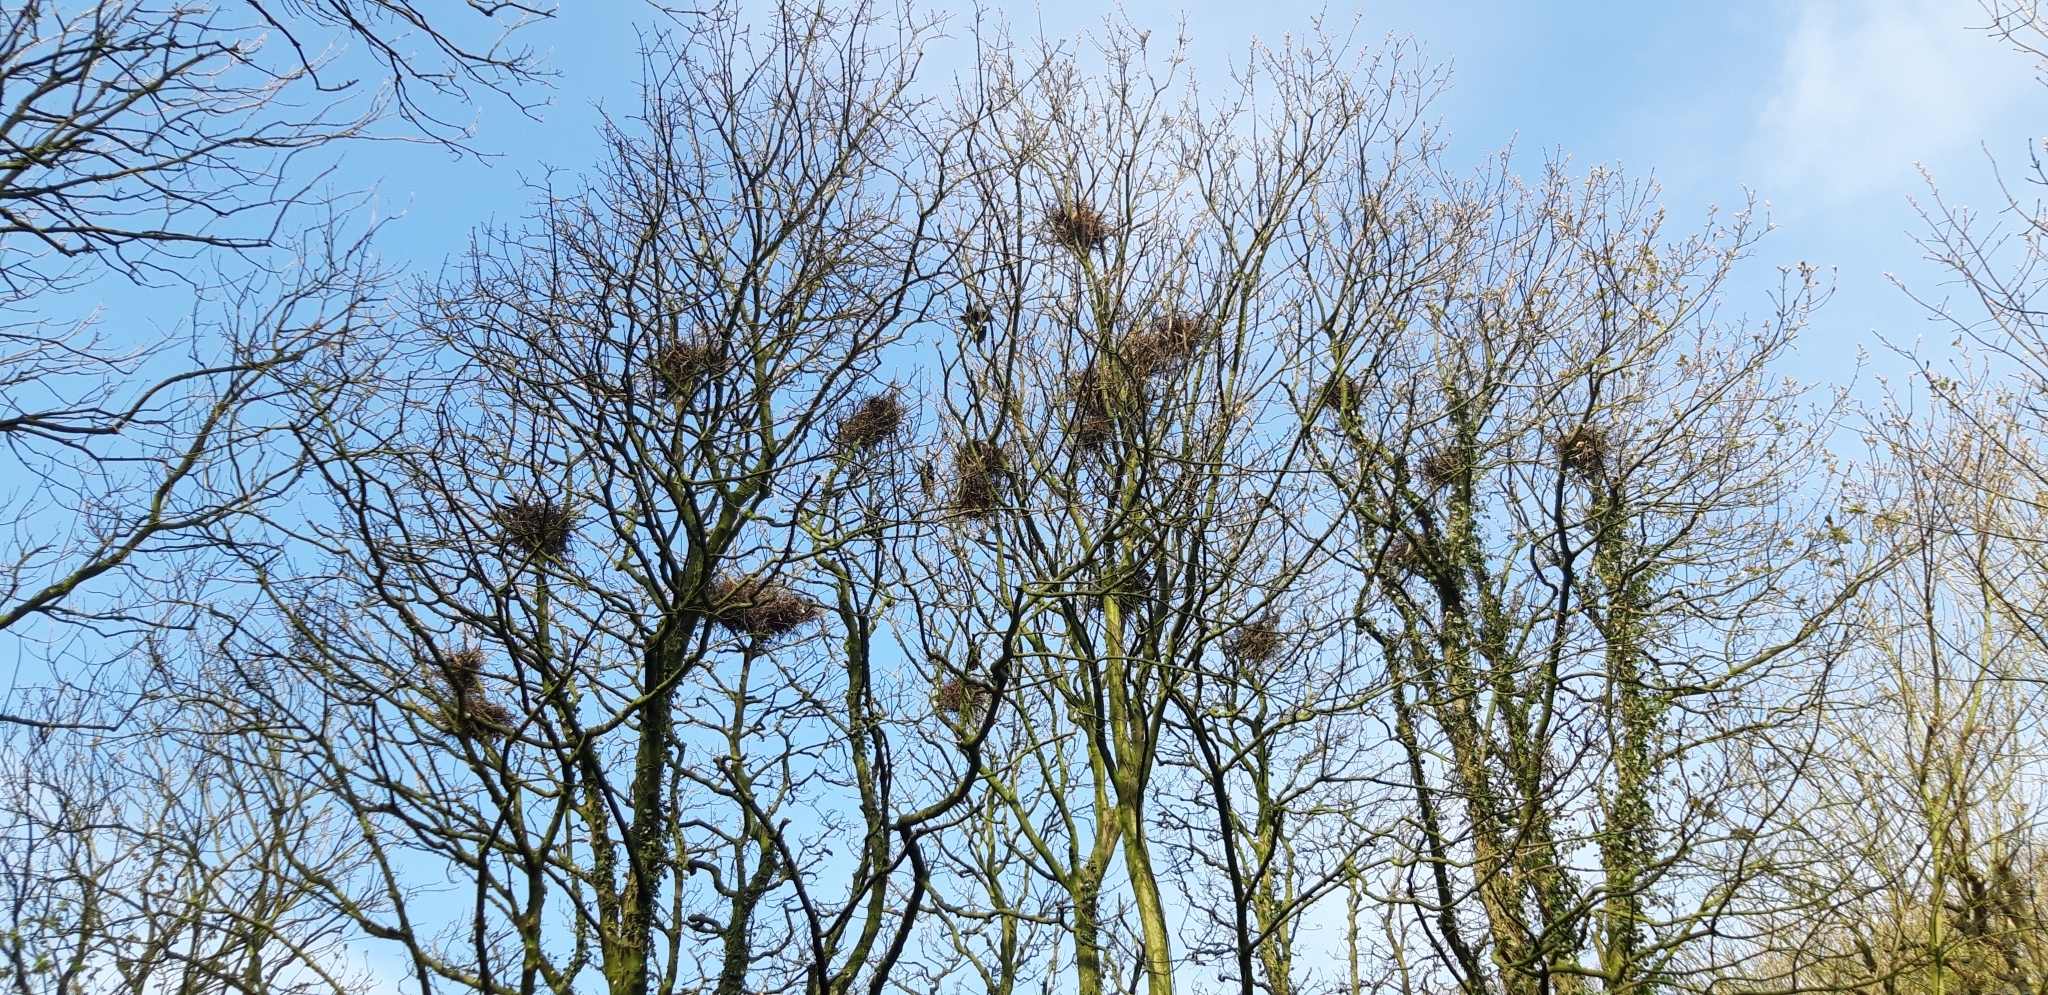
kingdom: Animalia
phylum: Chordata
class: Aves
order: Passeriformes
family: Corvidae
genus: Corvus
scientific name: Corvus frugilegus
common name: Rook
